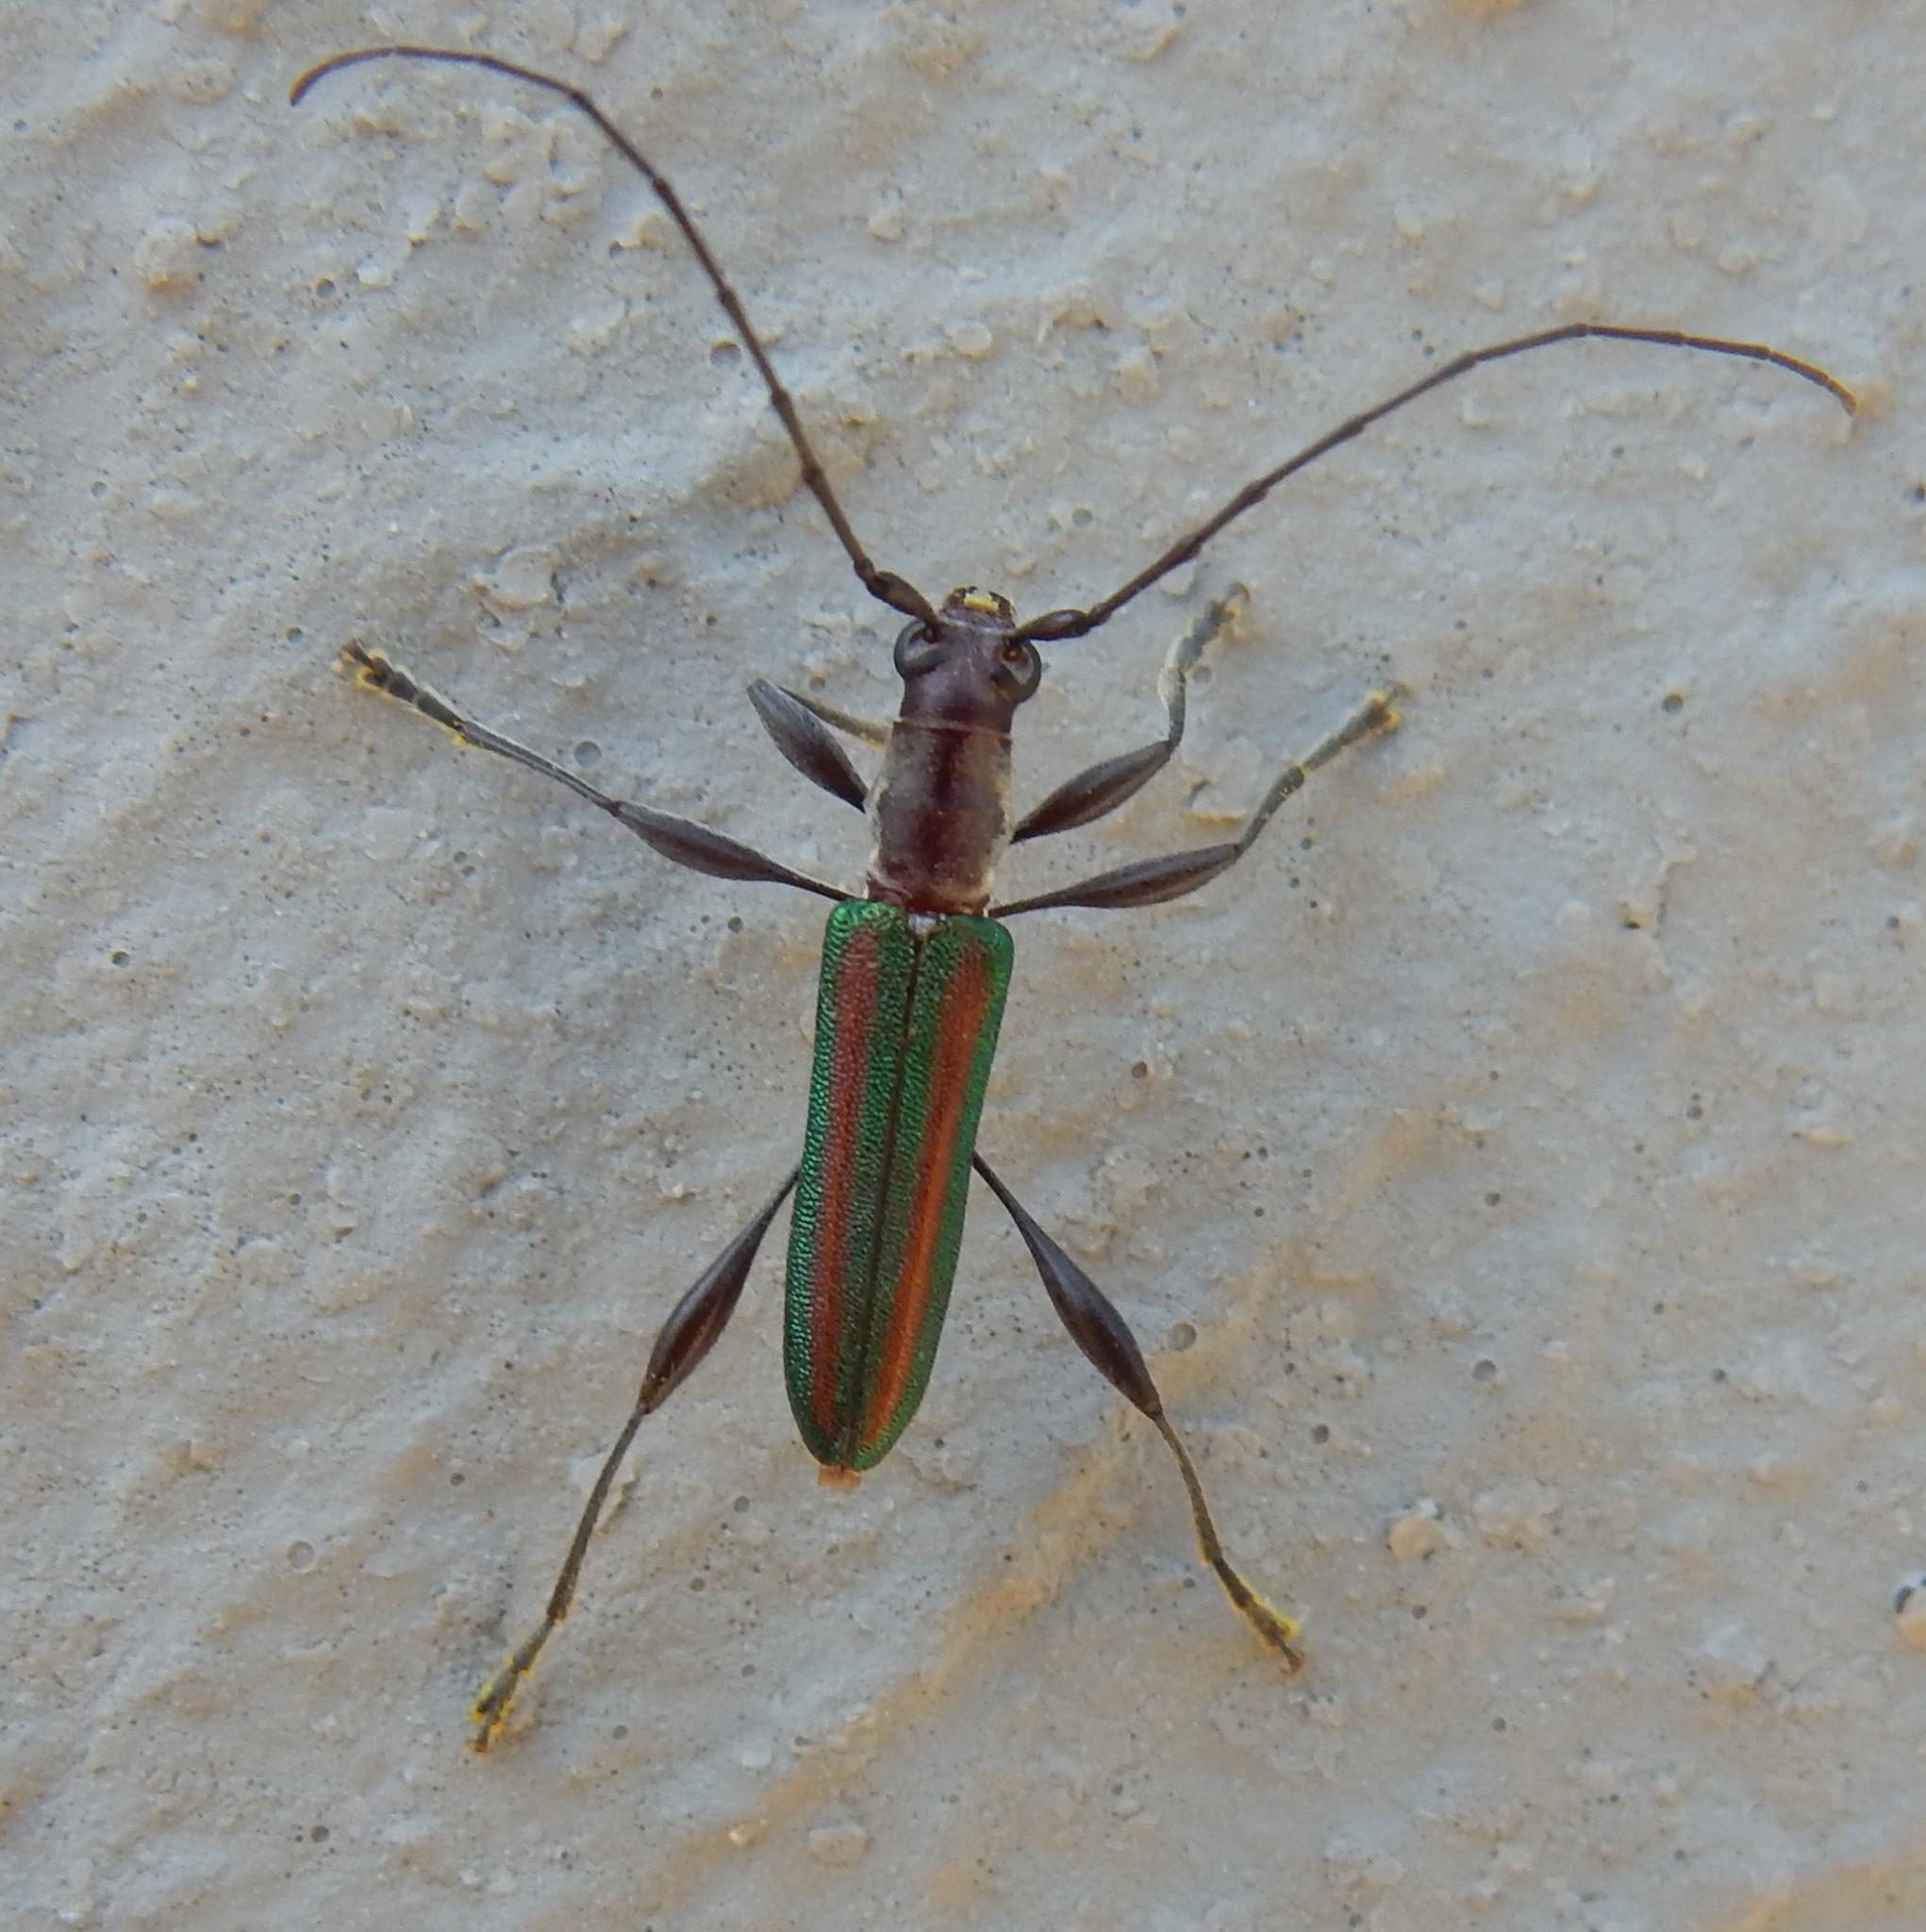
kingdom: Animalia
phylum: Arthropoda
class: Insecta
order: Coleoptera
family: Cerambycidae
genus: Zosterius
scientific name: Zosterius laetus
